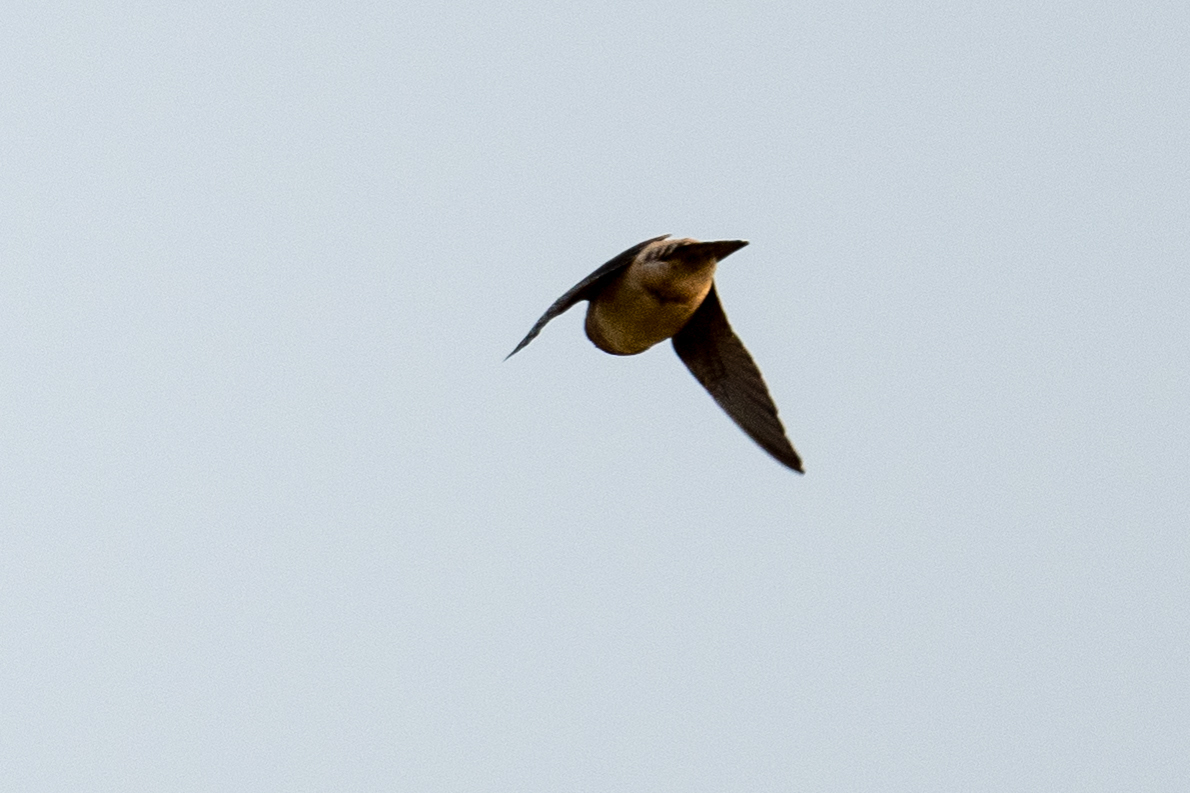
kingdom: Animalia
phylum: Chordata
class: Aves
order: Passeriformes
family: Hirundinidae
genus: Petrochelidon
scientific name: Petrochelidon pyrrhonota
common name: American cliff swallow
